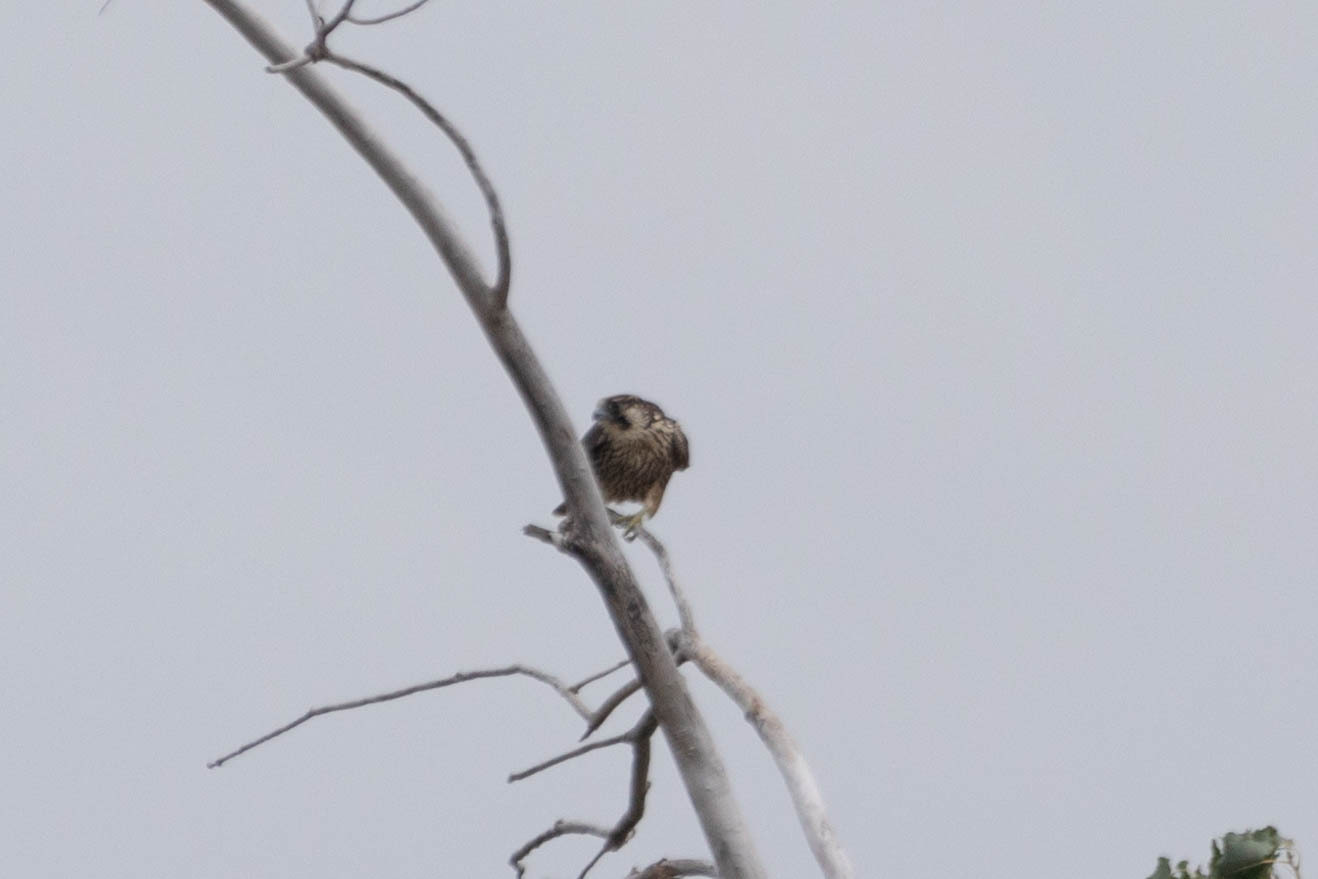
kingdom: Animalia
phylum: Chordata
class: Aves
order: Falconiformes
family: Falconidae
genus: Falco
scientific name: Falco peregrinus
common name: Peregrine falcon
